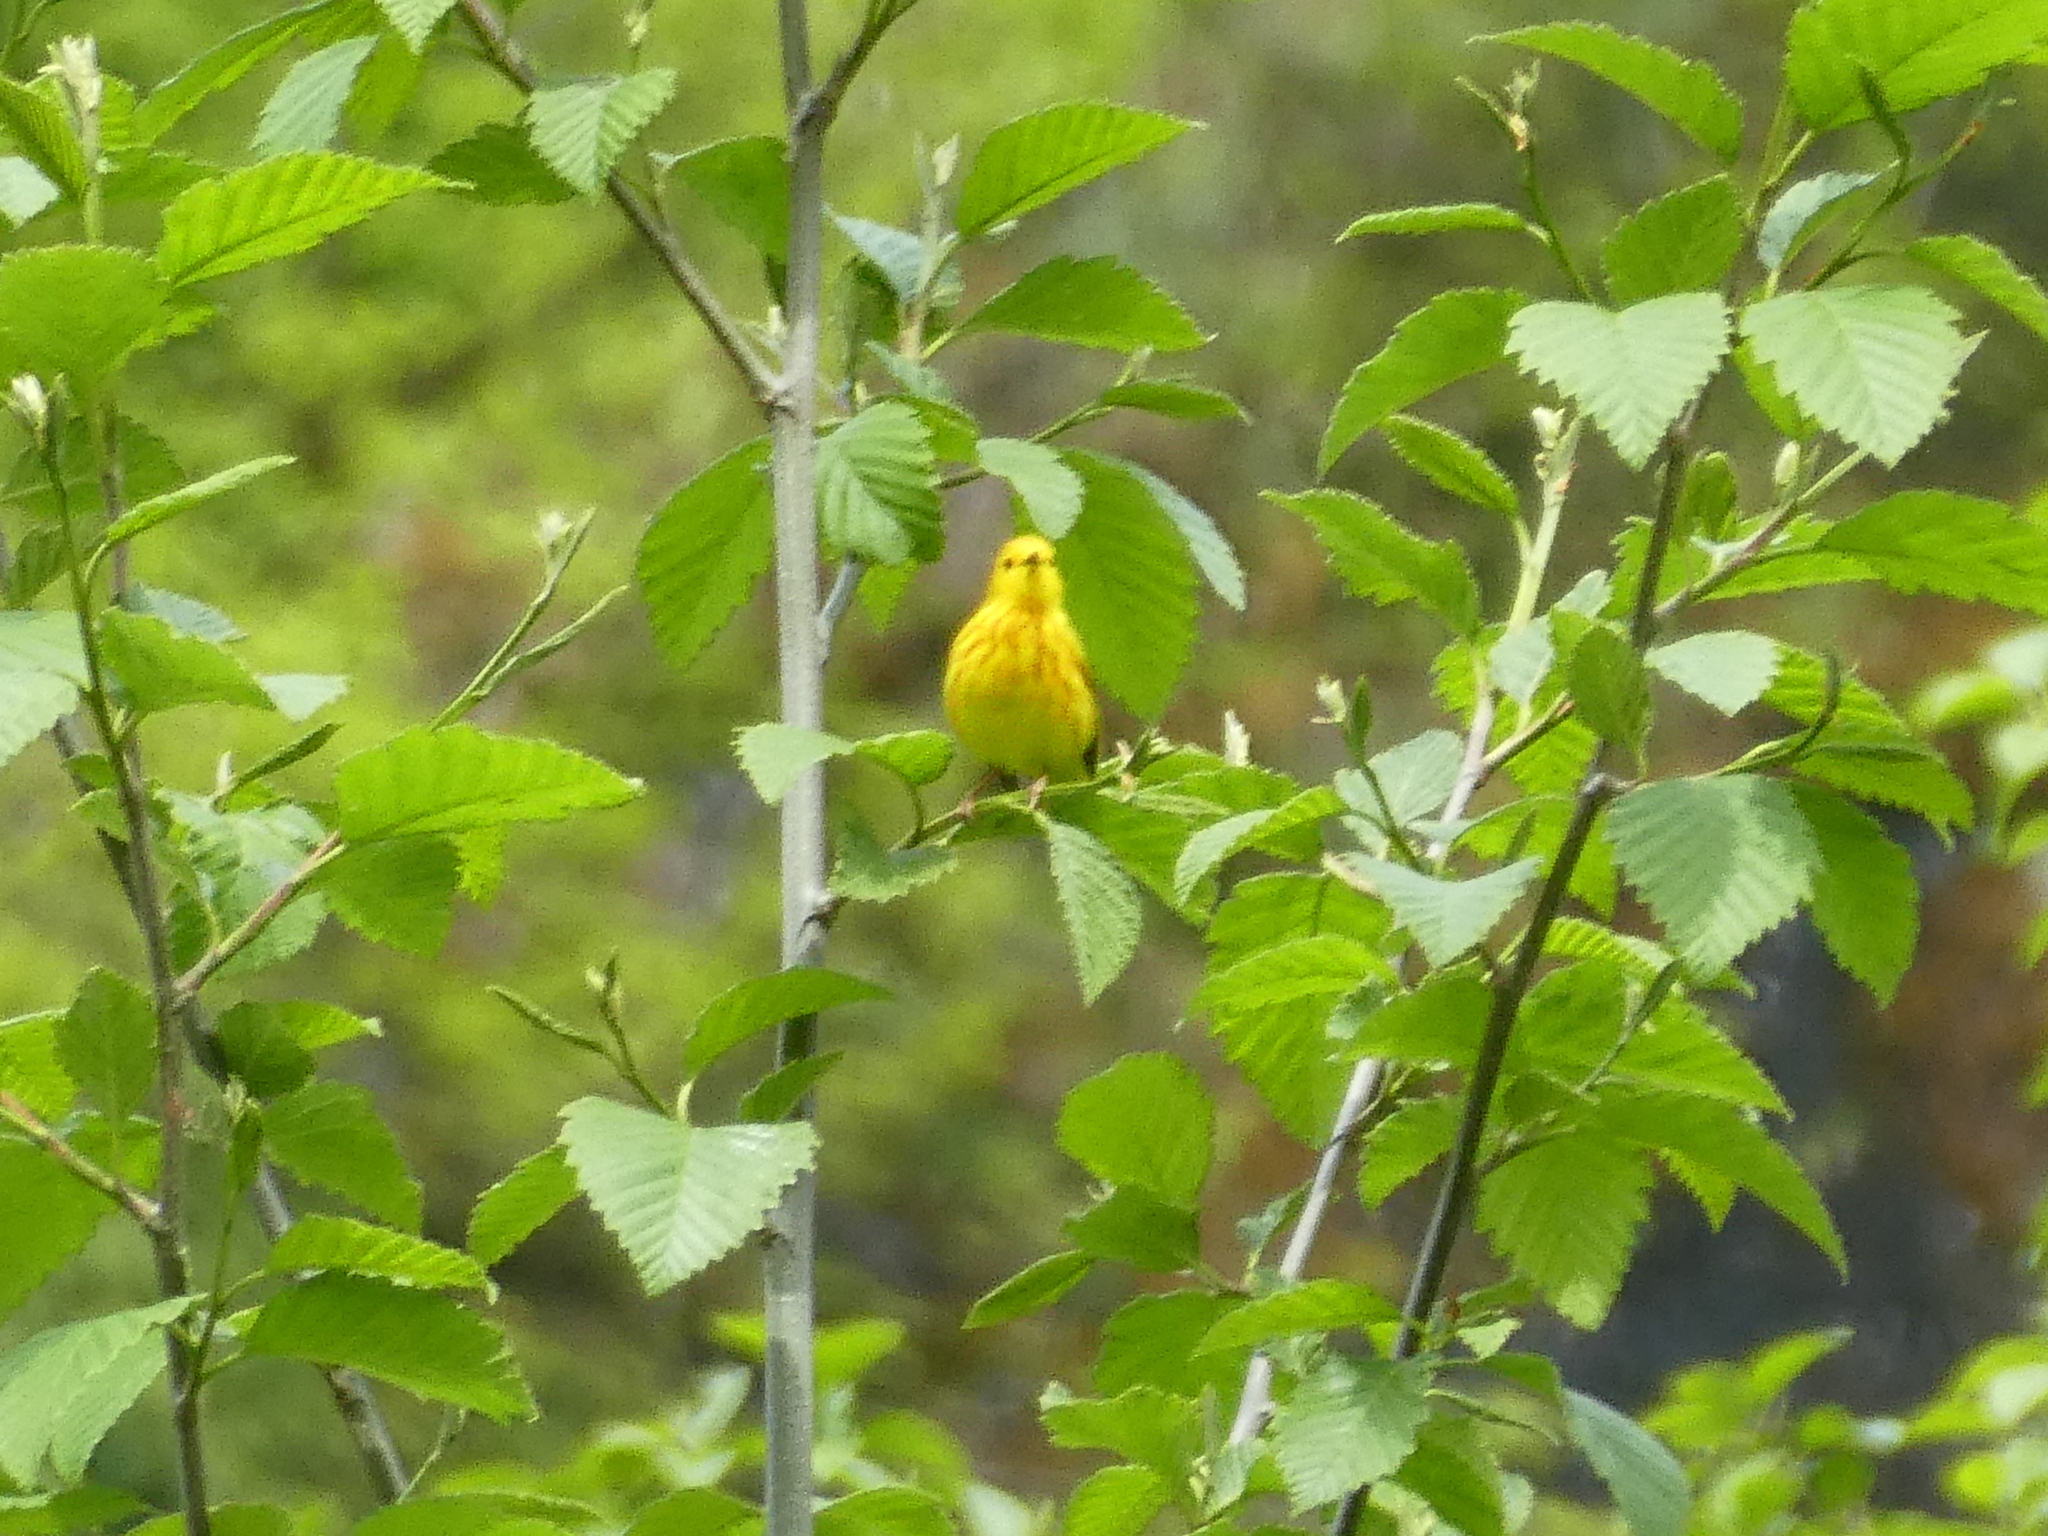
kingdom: Animalia
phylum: Chordata
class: Aves
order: Passeriformes
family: Parulidae
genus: Setophaga
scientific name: Setophaga petechia
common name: Yellow warbler
